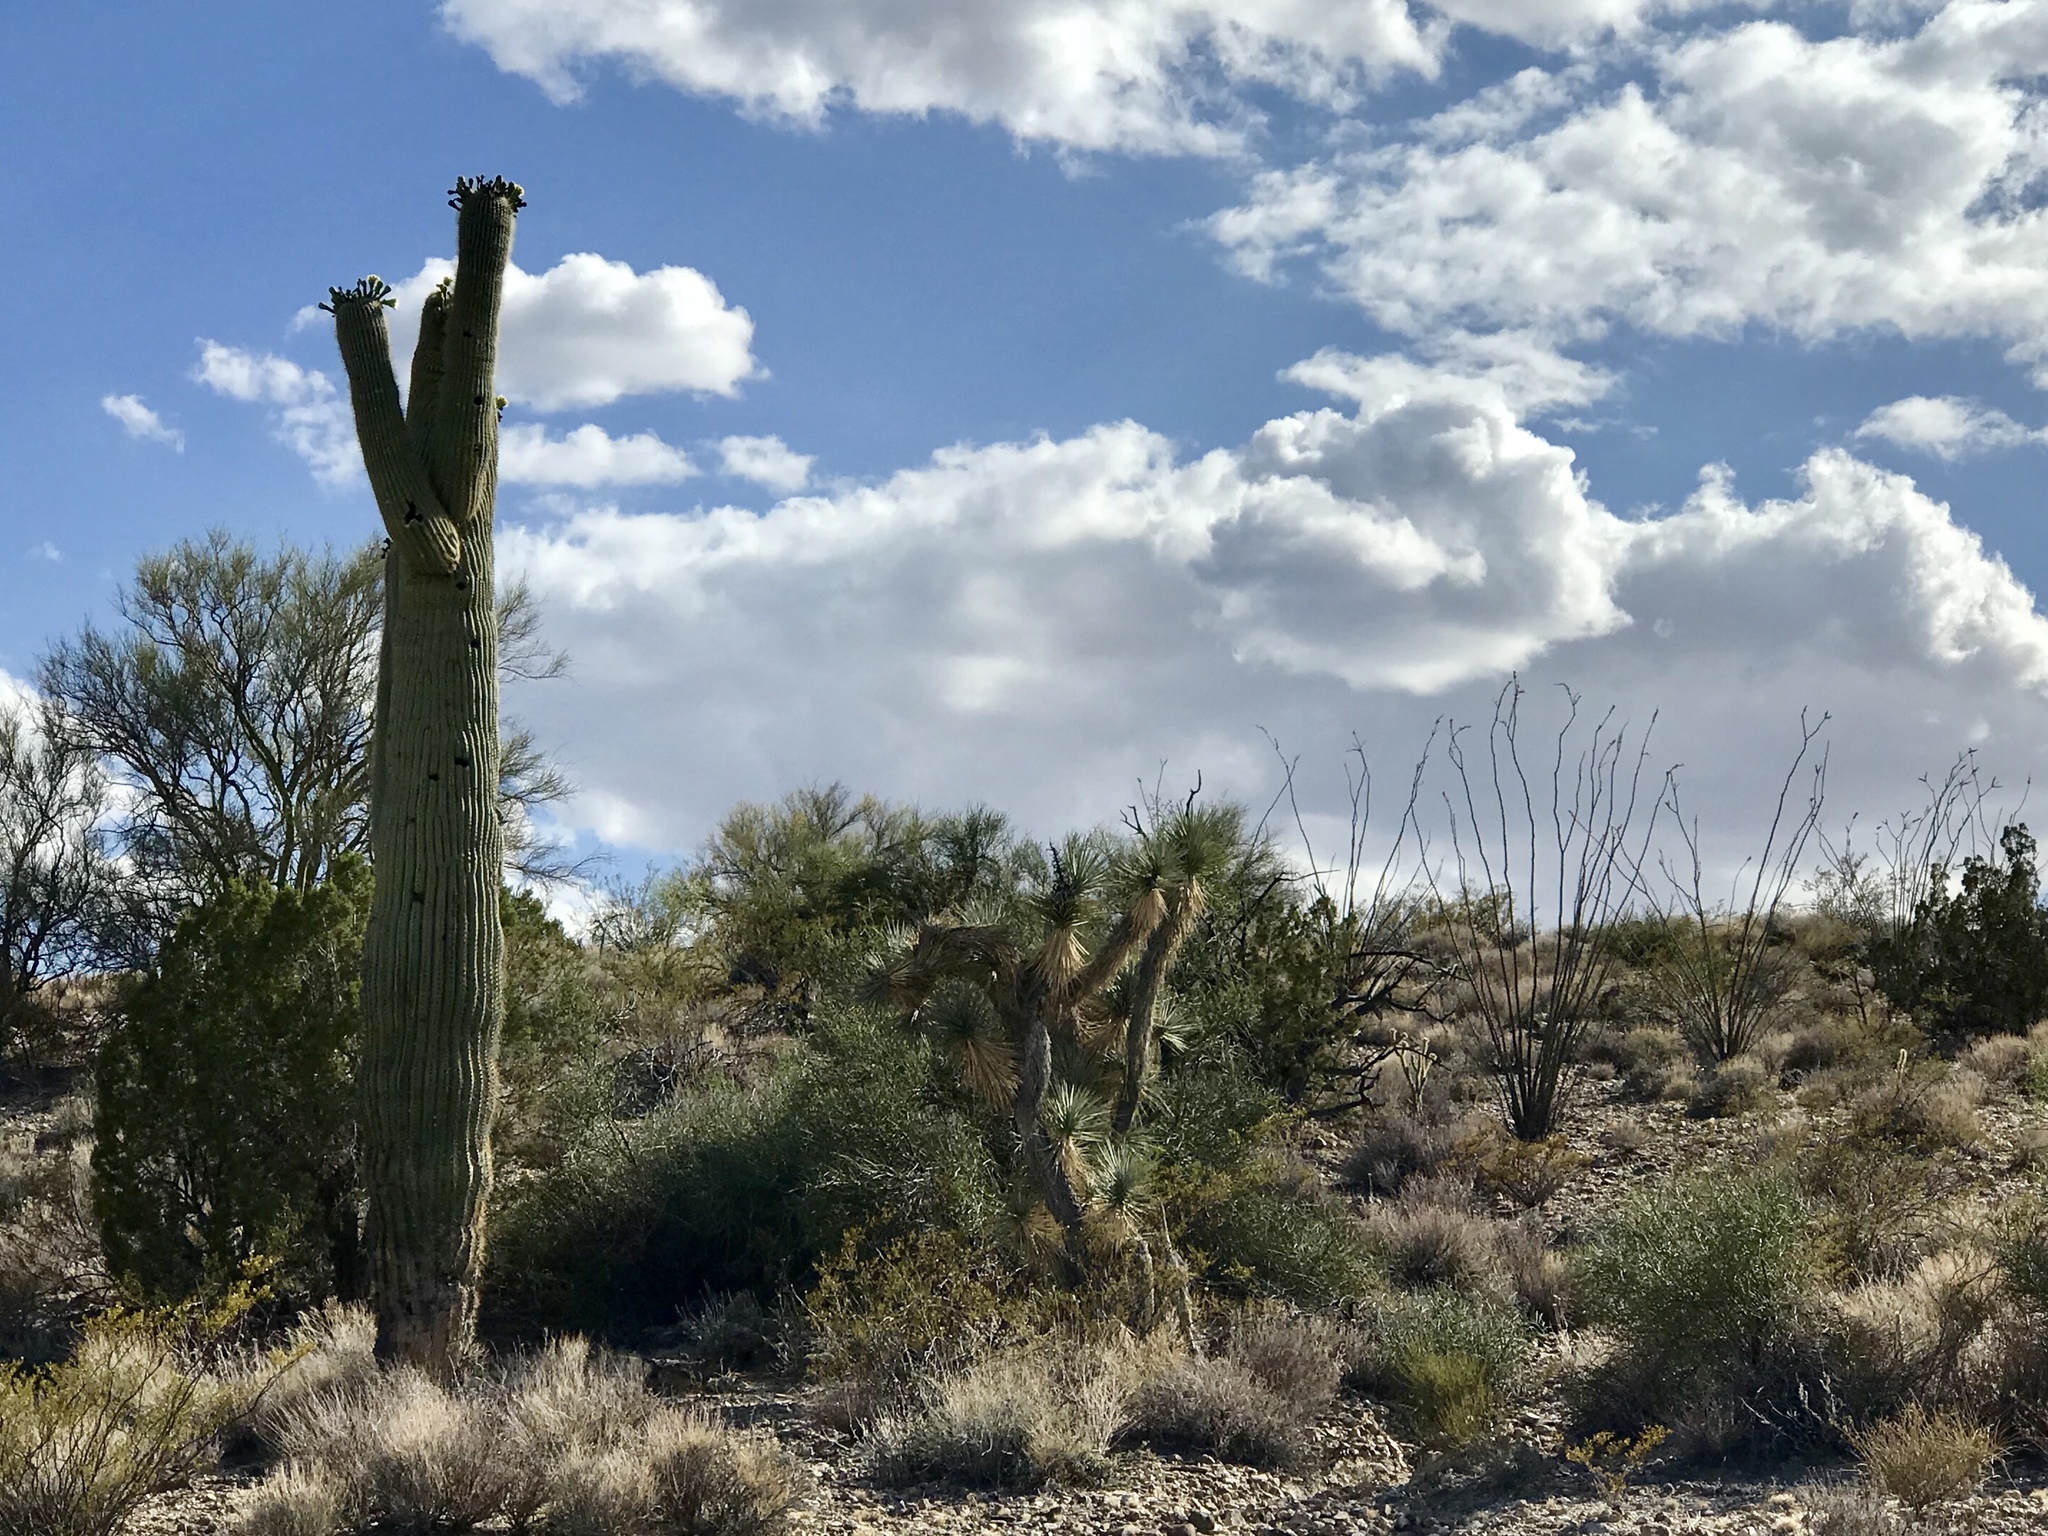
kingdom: Plantae
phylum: Tracheophyta
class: Magnoliopsida
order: Caryophyllales
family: Cactaceae
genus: Carnegiea
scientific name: Carnegiea gigantea
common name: Saguaro
